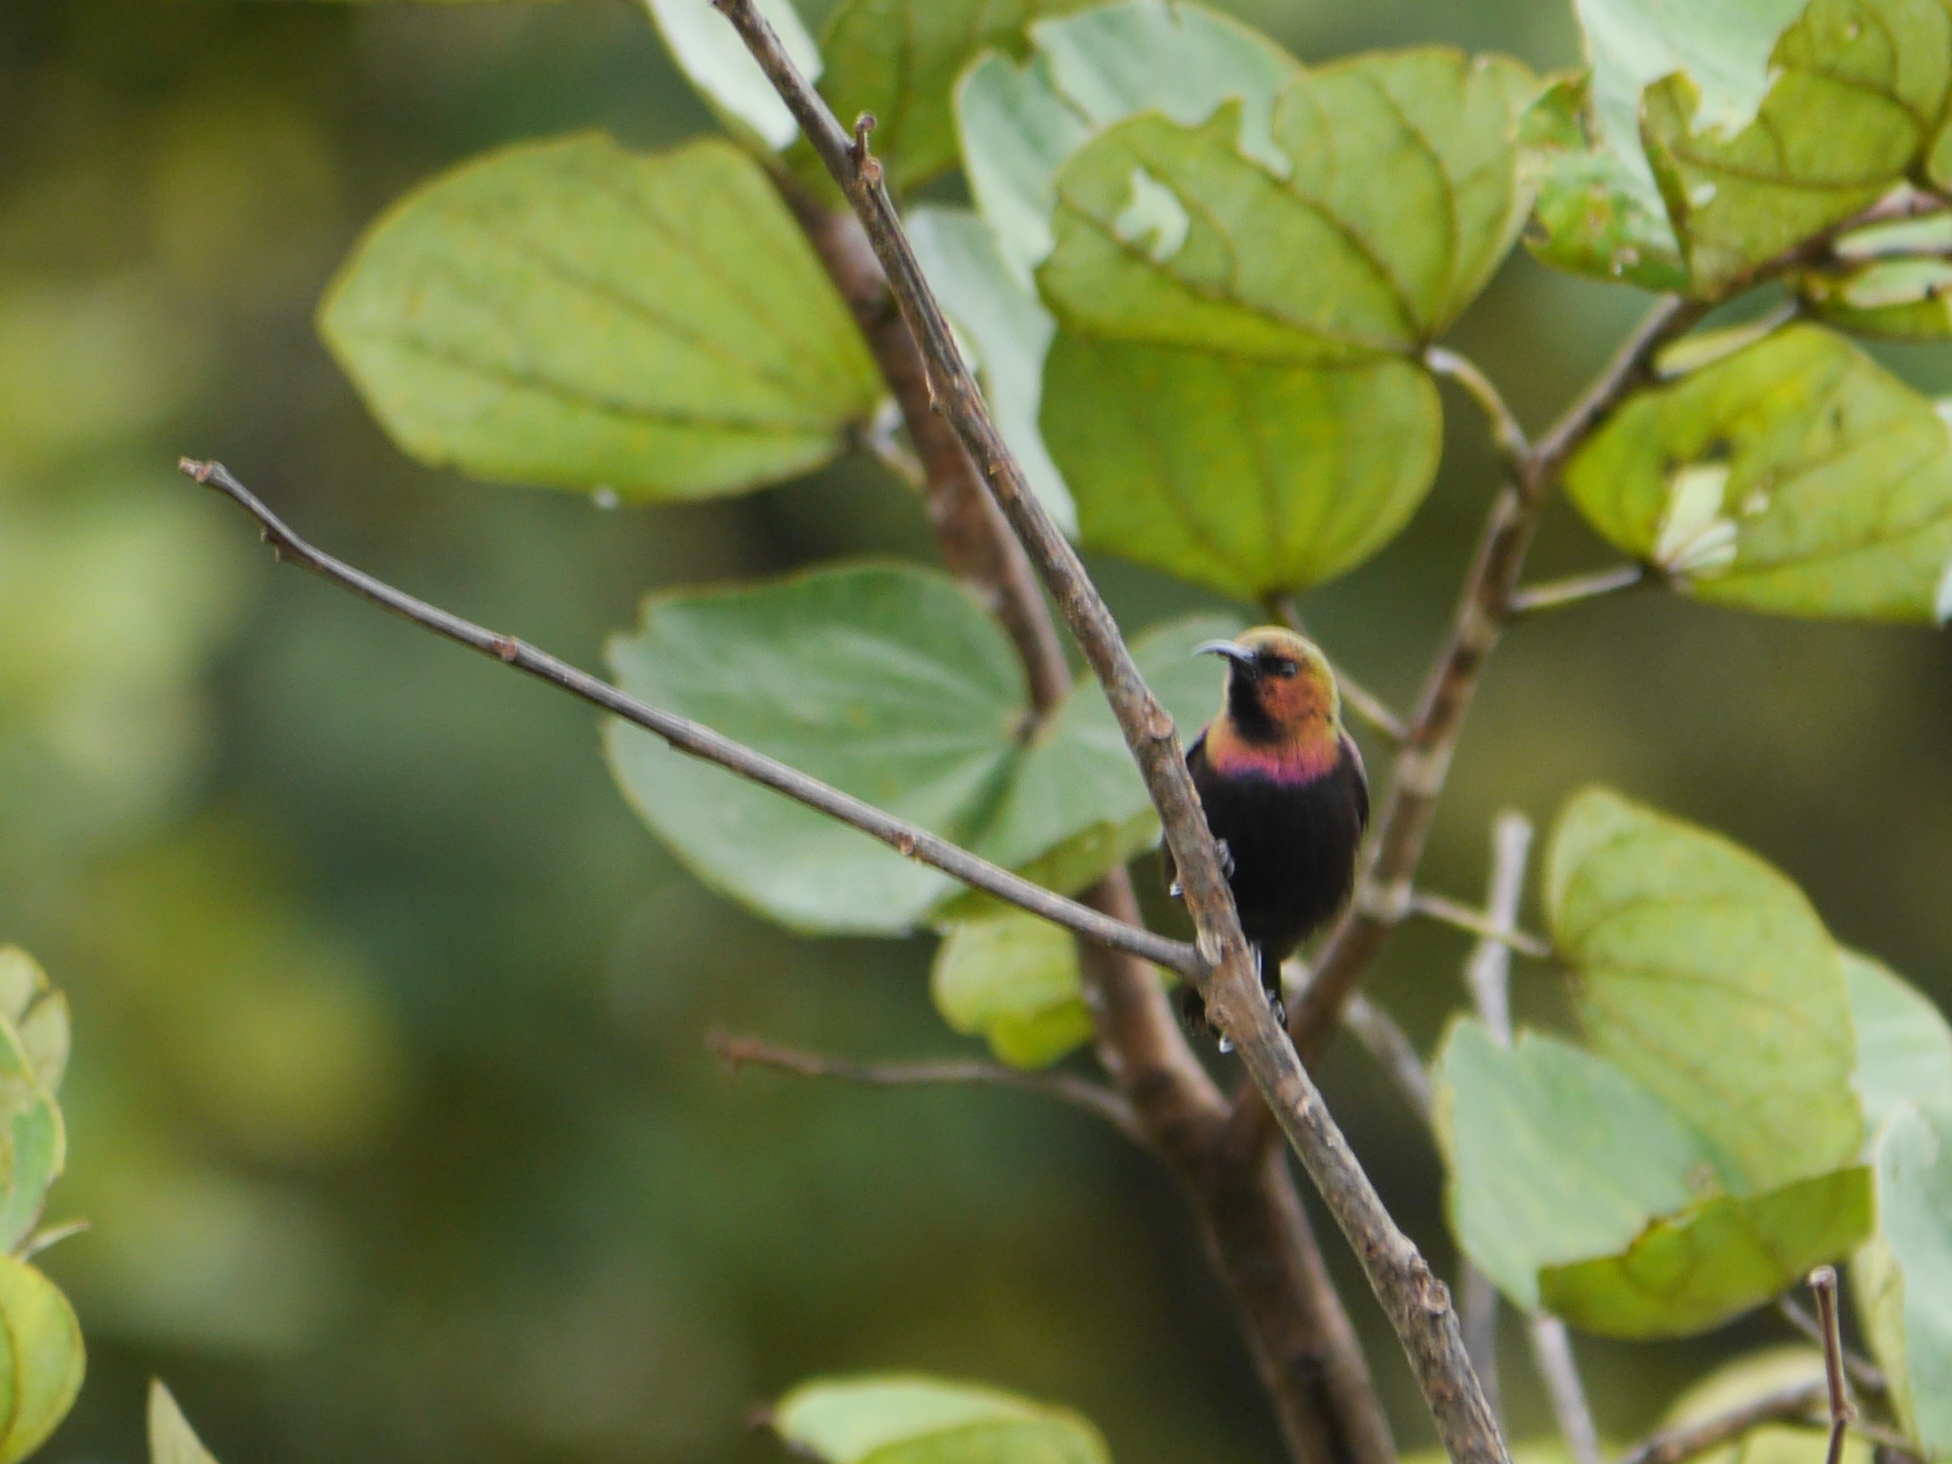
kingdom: Animalia
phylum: Chordata
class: Aves
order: Passeriformes
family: Nectariniidae
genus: Cinnyris
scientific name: Cinnyris cupreus
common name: Copper sunbird
